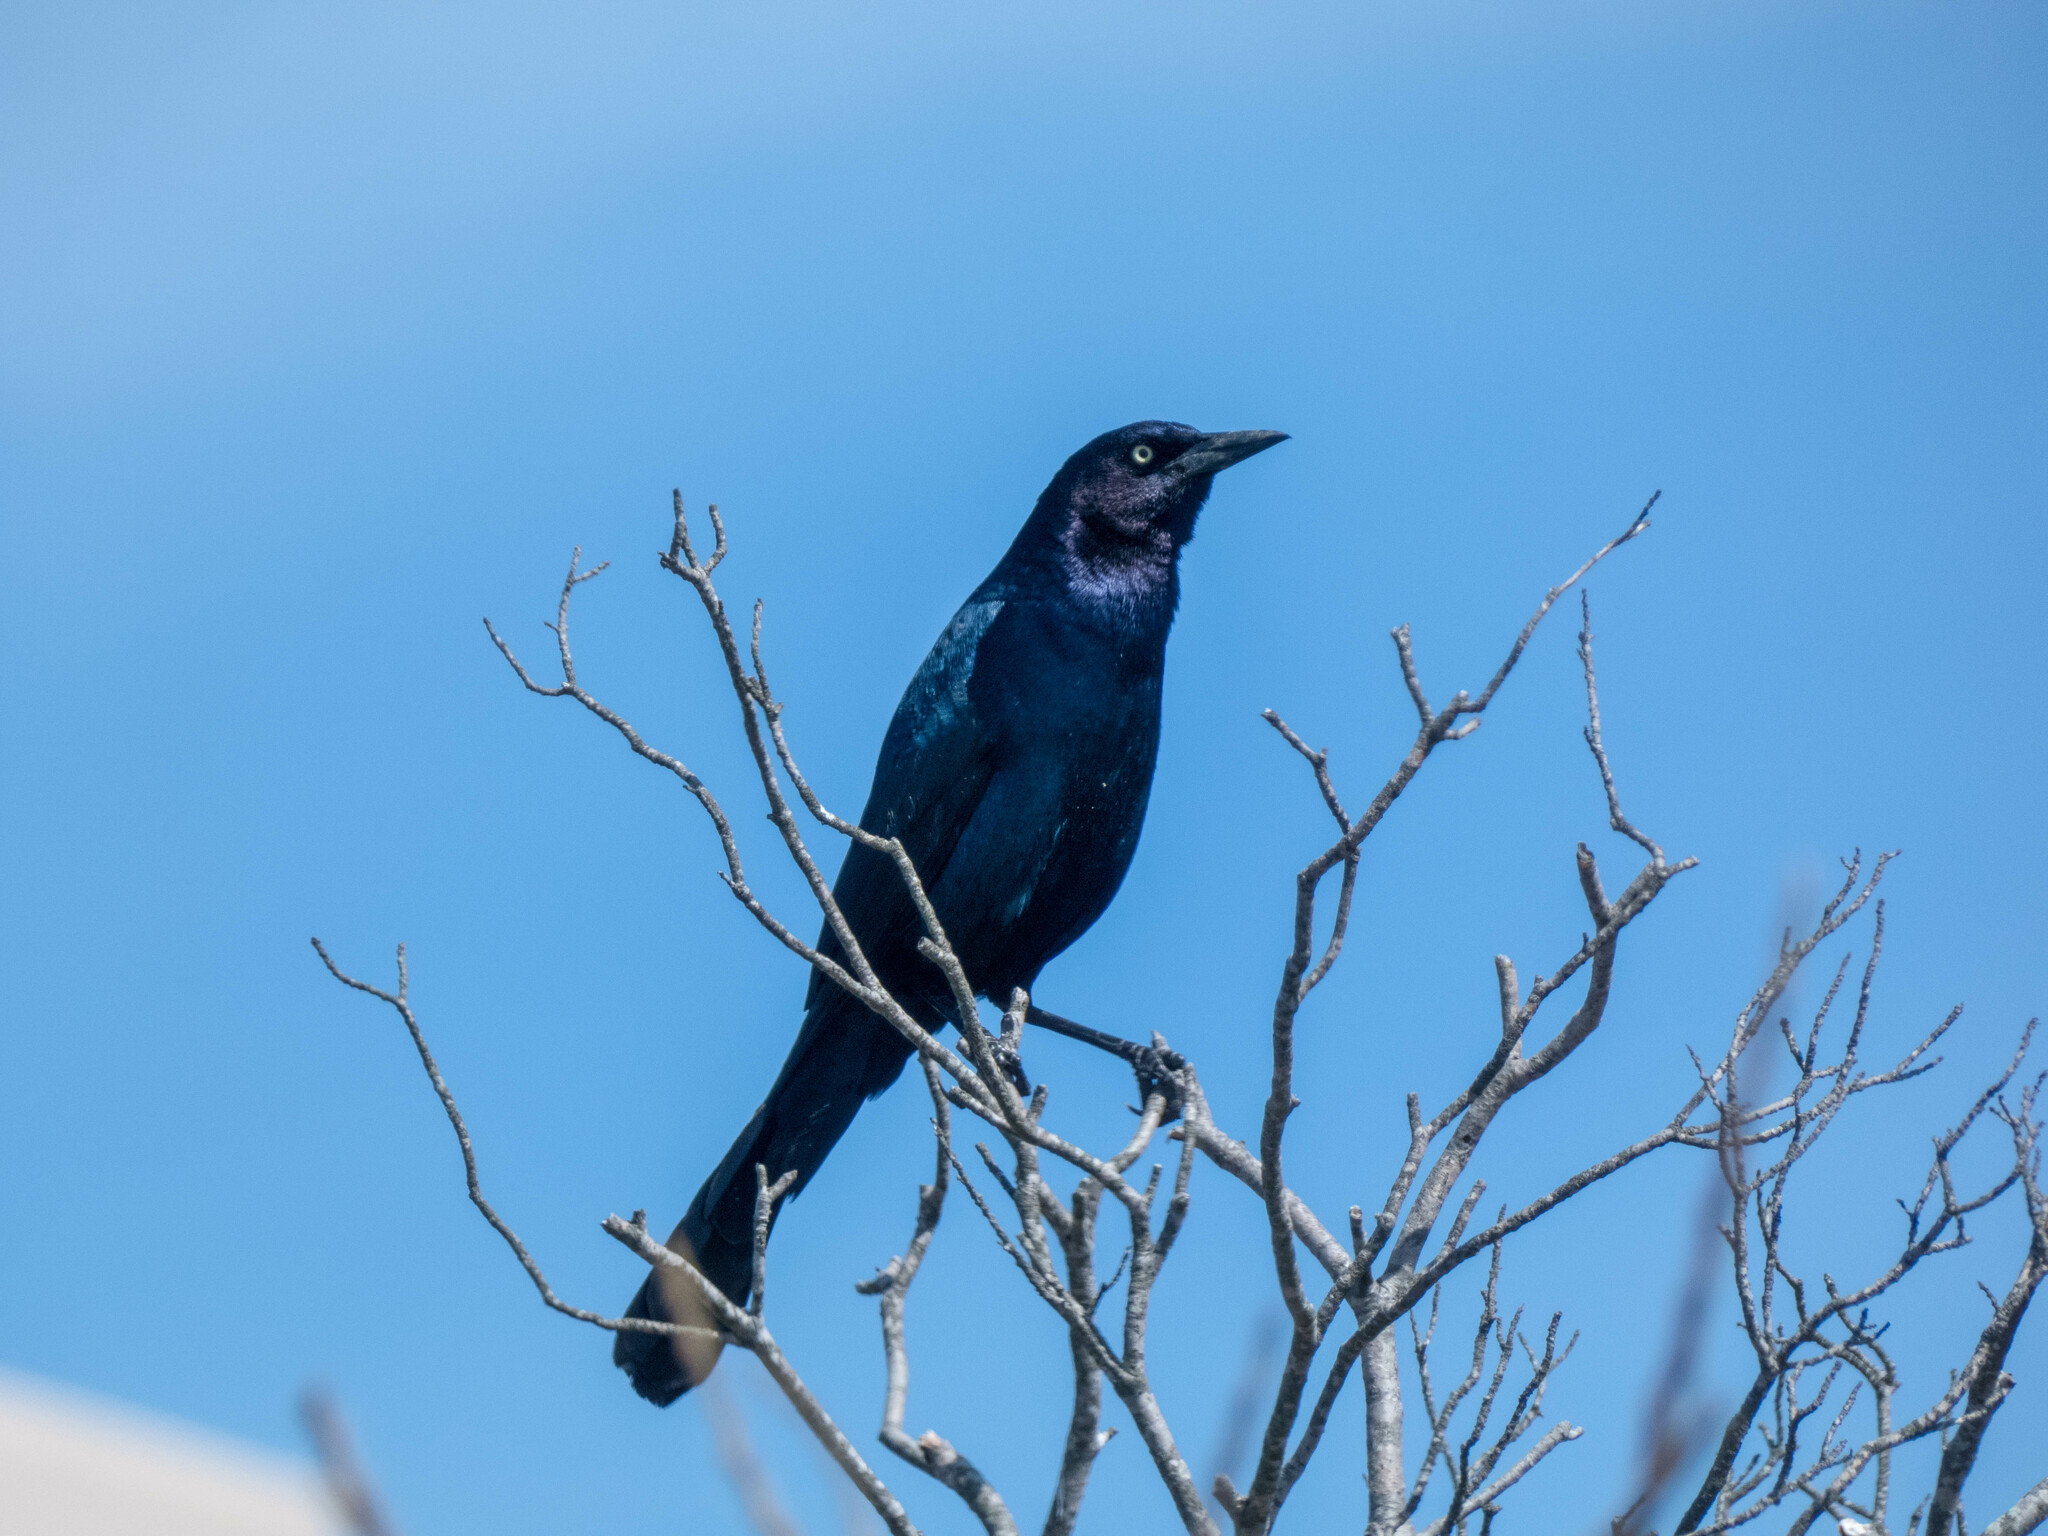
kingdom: Animalia
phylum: Chordata
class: Aves
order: Passeriformes
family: Icteridae
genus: Quiscalus
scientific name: Quiscalus major
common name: Boat-tailed grackle
